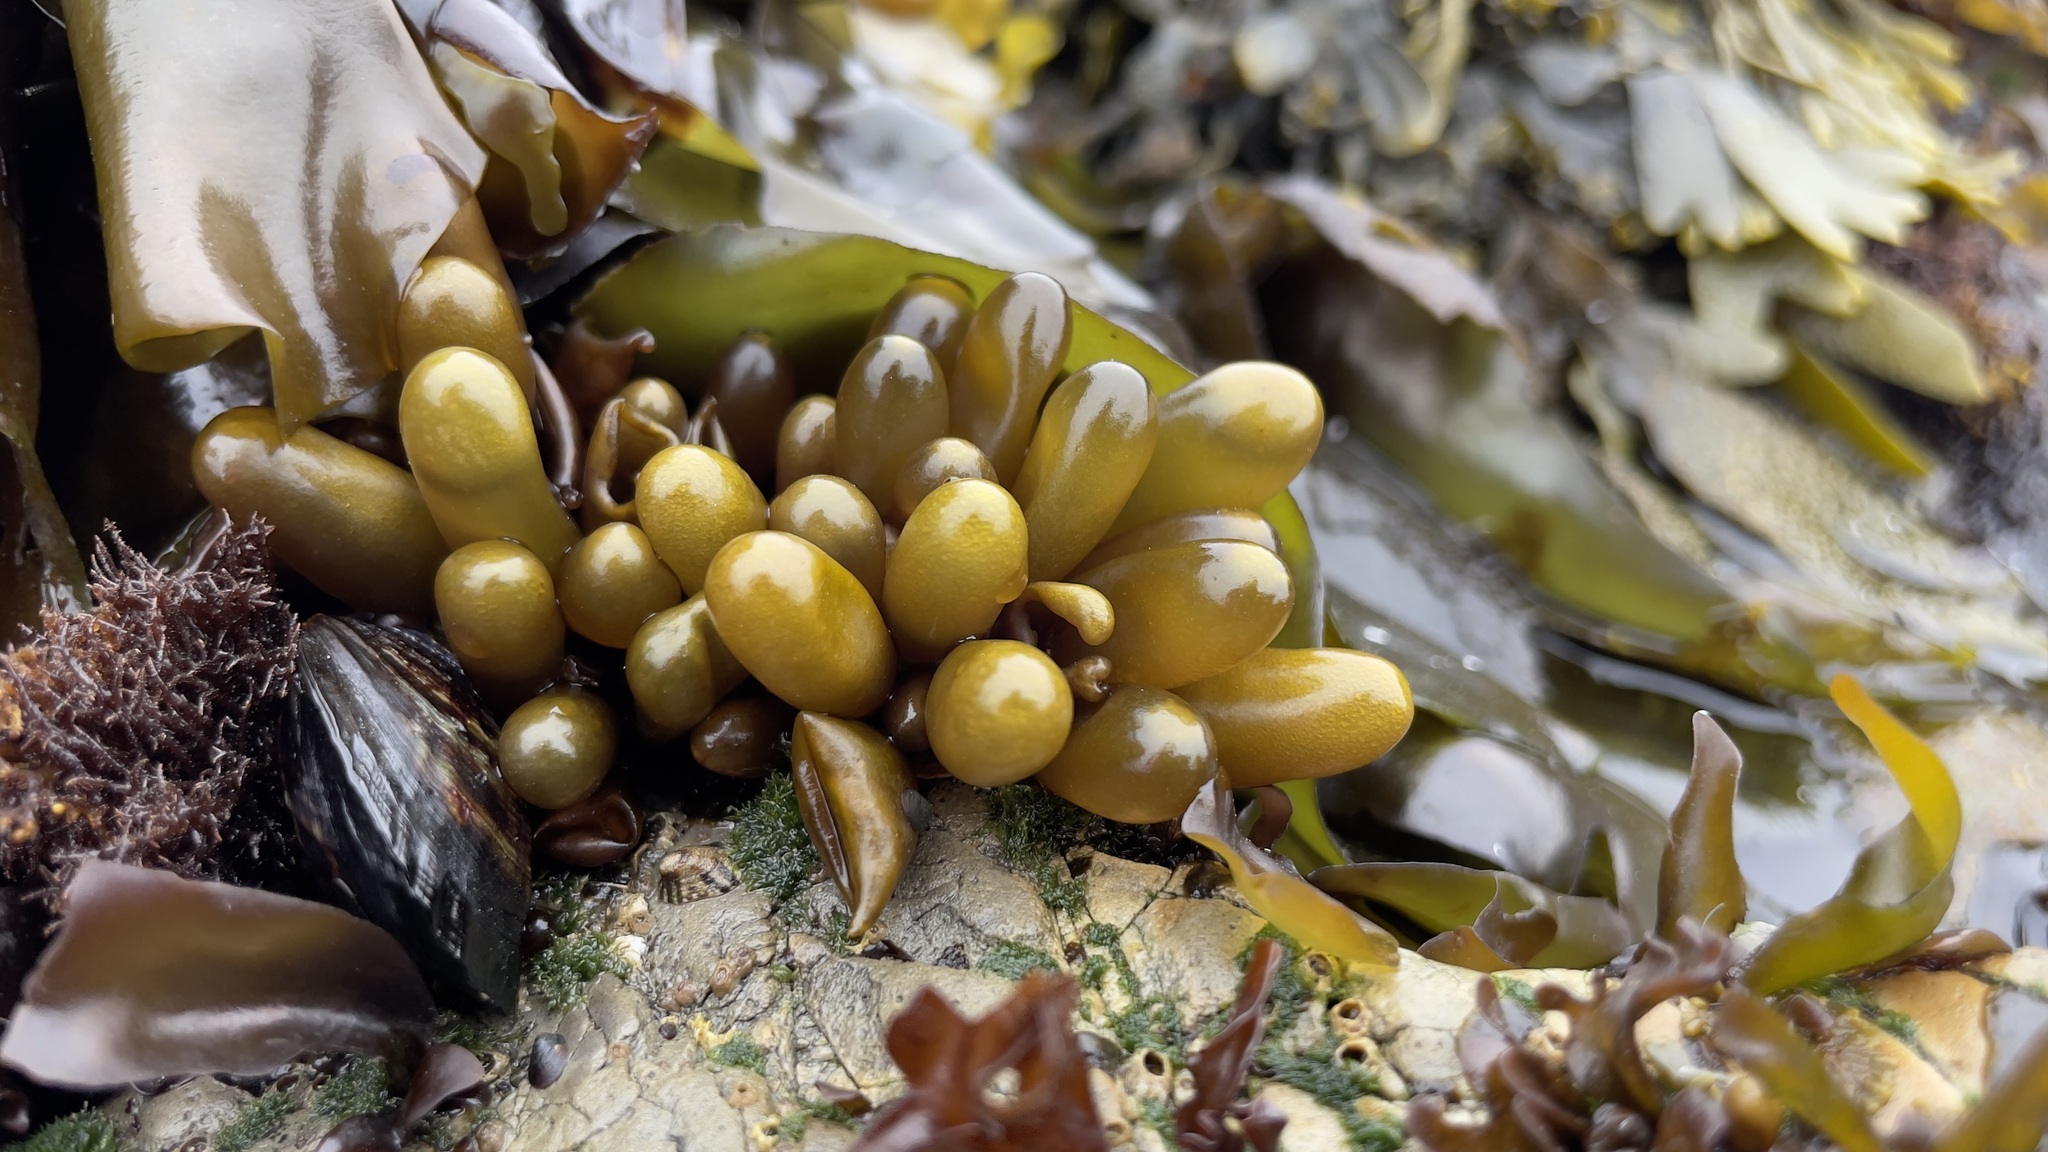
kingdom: Plantae
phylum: Rhodophyta
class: Florideophyceae
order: Palmariales
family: Palmariaceae
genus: Halosaccion
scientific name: Halosaccion glandiforme
